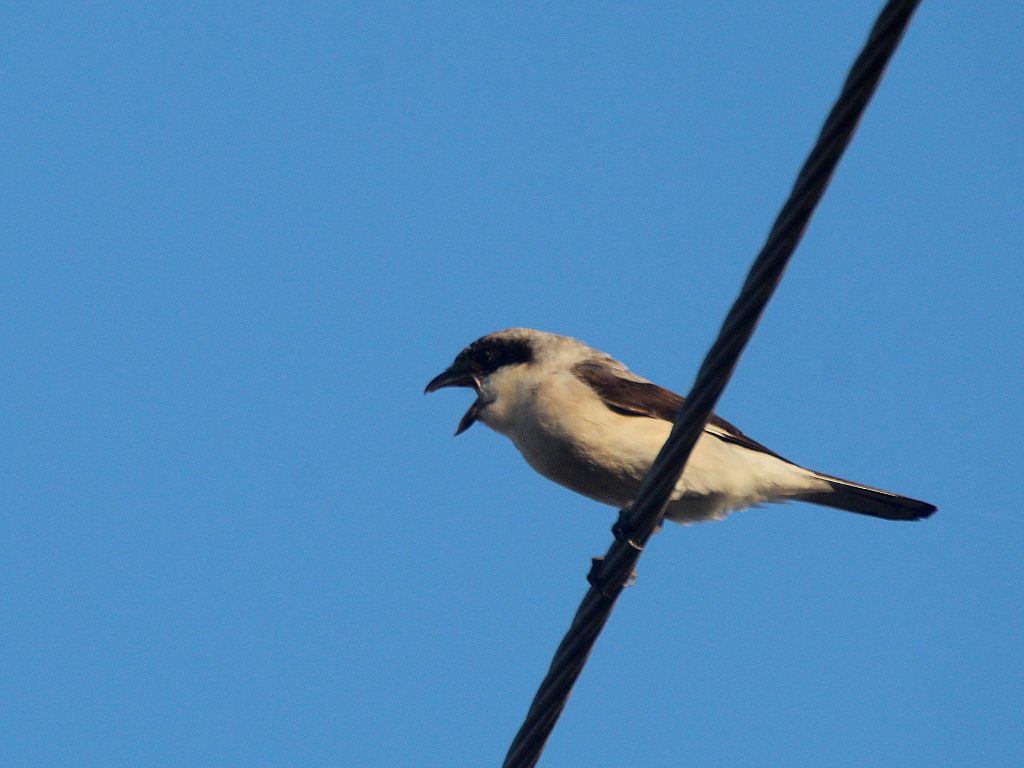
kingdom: Animalia
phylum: Chordata
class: Aves
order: Passeriformes
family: Laniidae
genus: Lanius
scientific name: Lanius minor
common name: Lesser grey shrike
